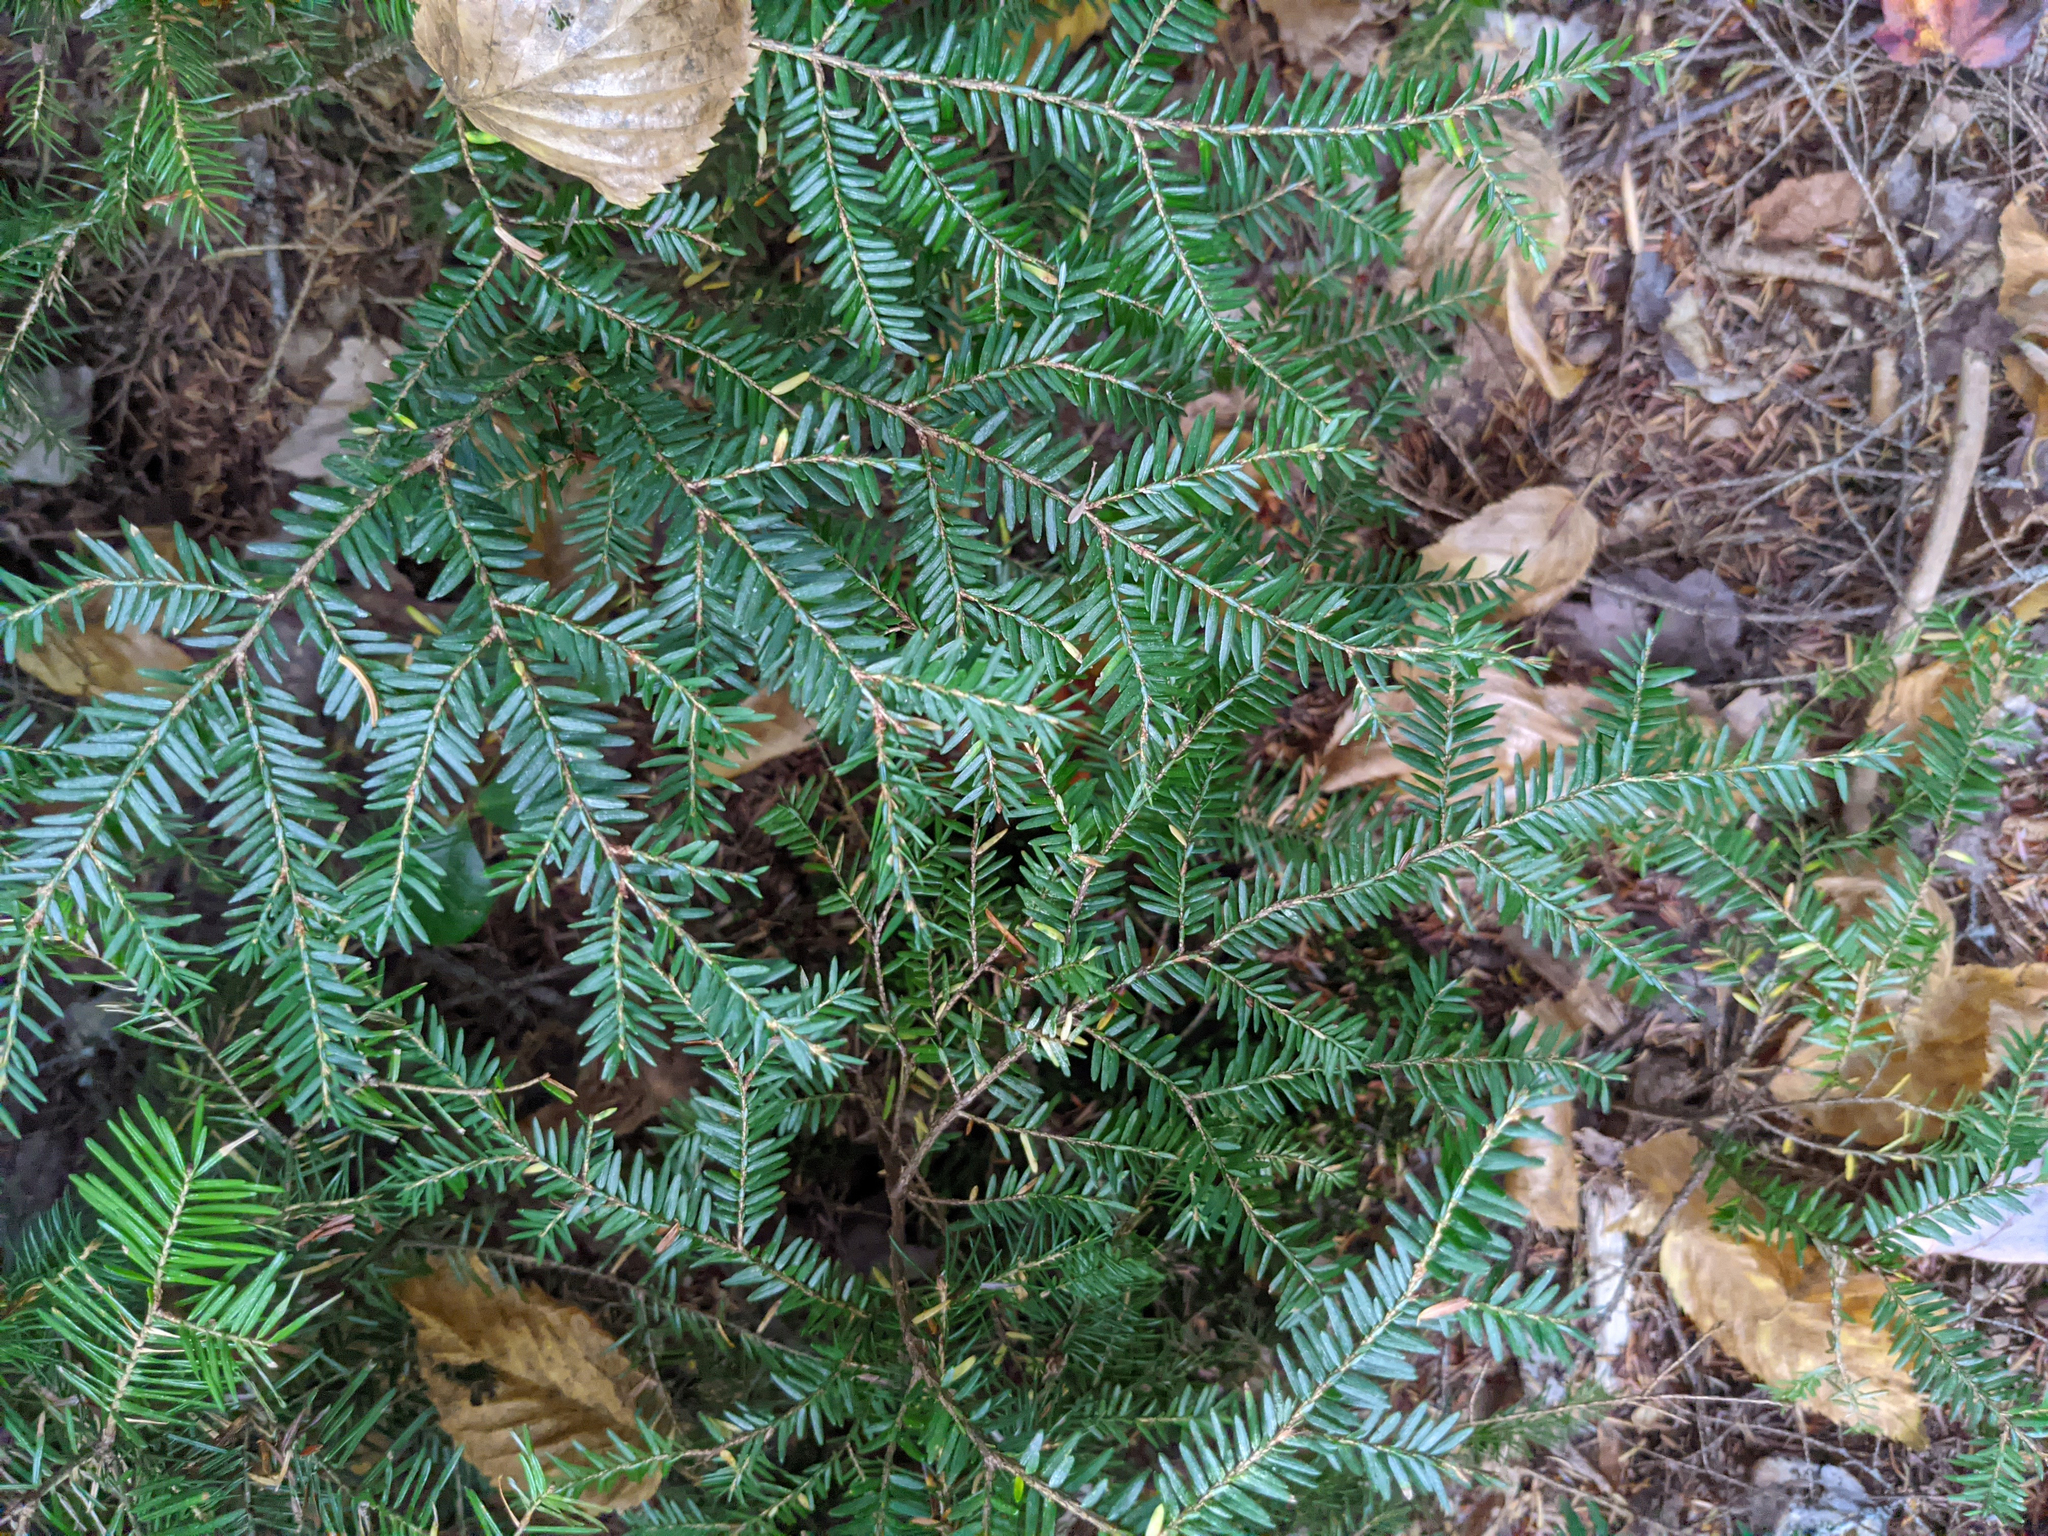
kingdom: Plantae
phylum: Tracheophyta
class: Pinopsida
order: Pinales
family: Pinaceae
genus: Tsuga
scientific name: Tsuga canadensis
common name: Eastern hemlock
